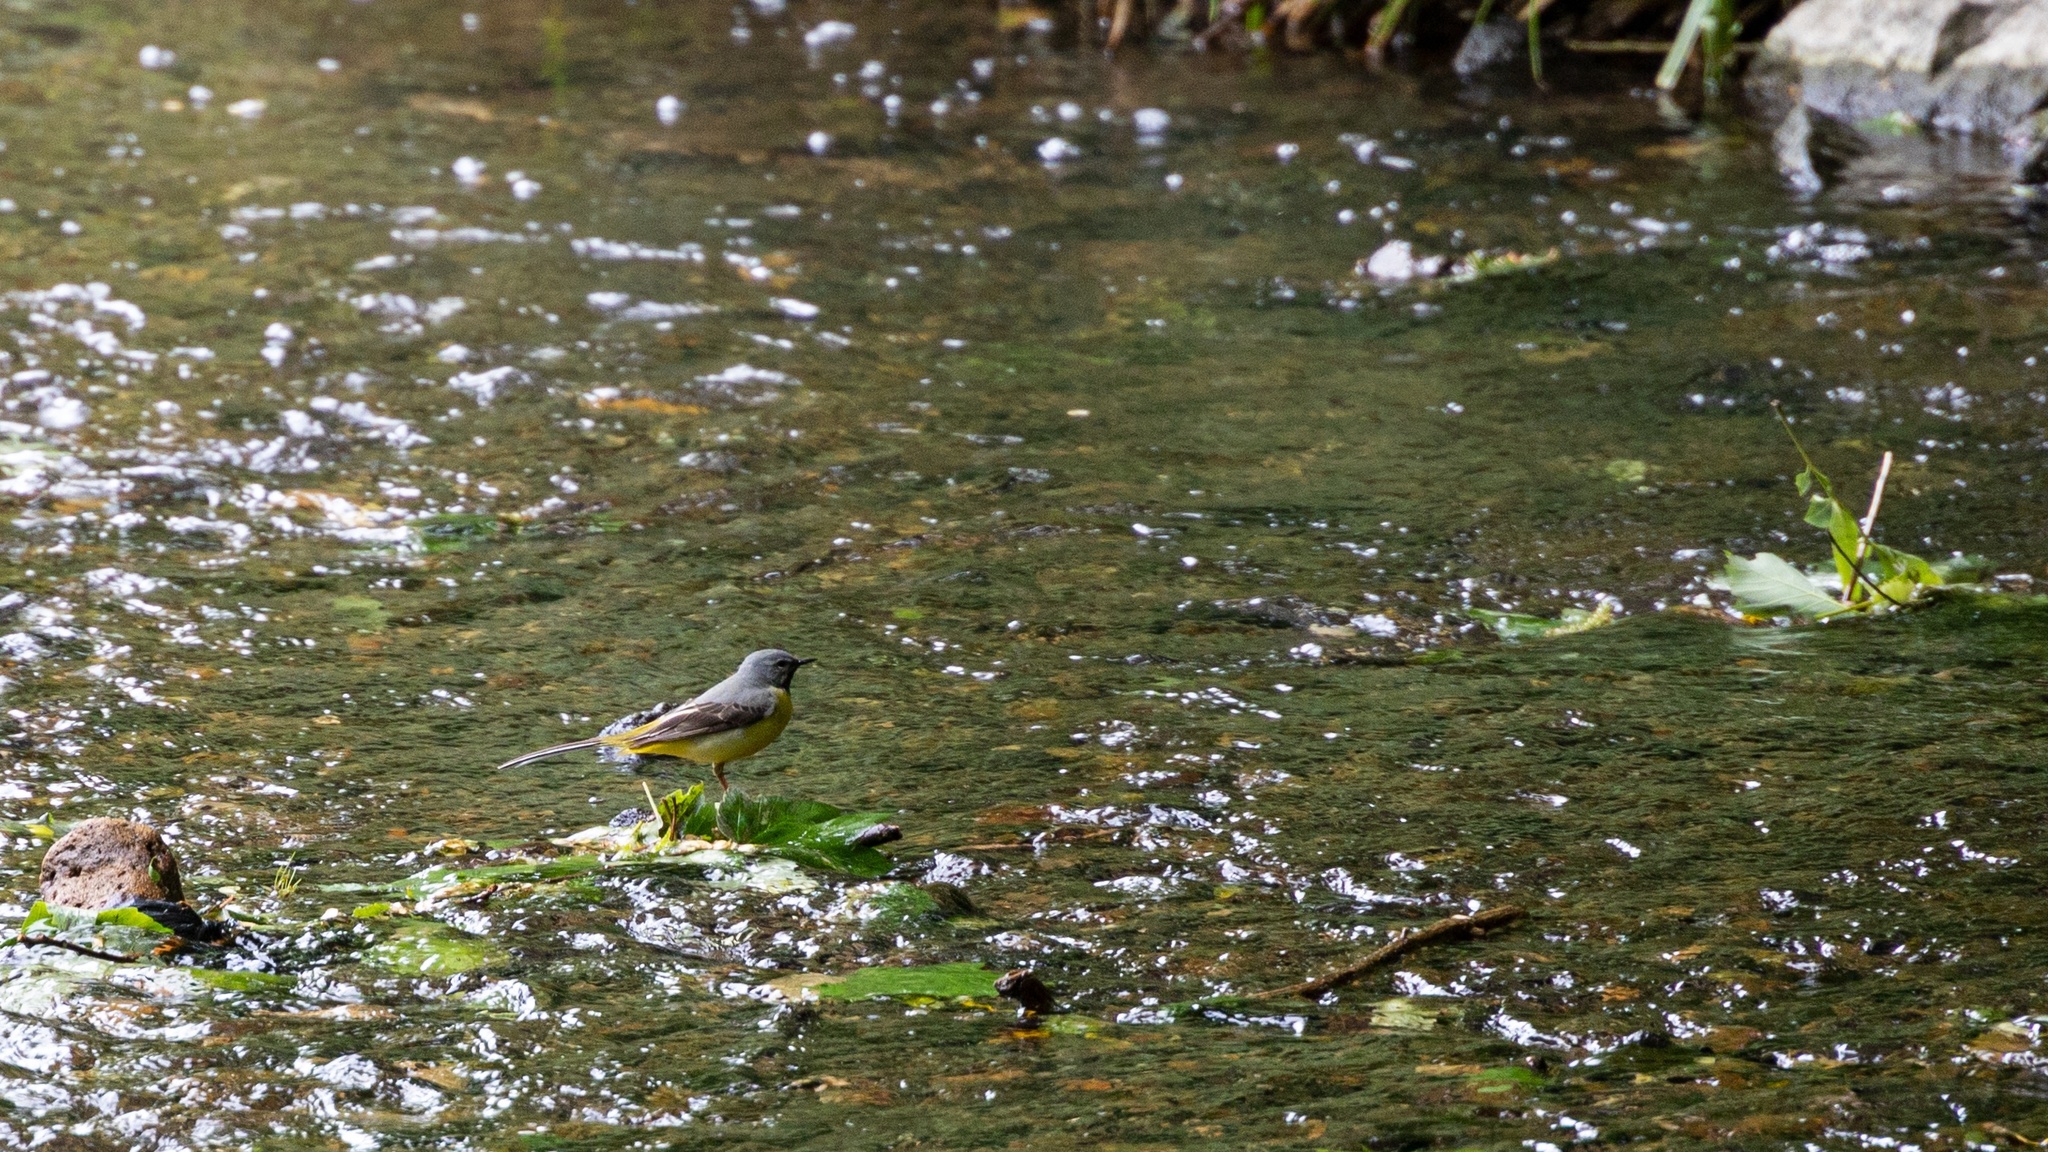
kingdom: Animalia
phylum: Chordata
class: Aves
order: Passeriformes
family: Motacillidae
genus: Motacilla
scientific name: Motacilla cinerea
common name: Grey wagtail
